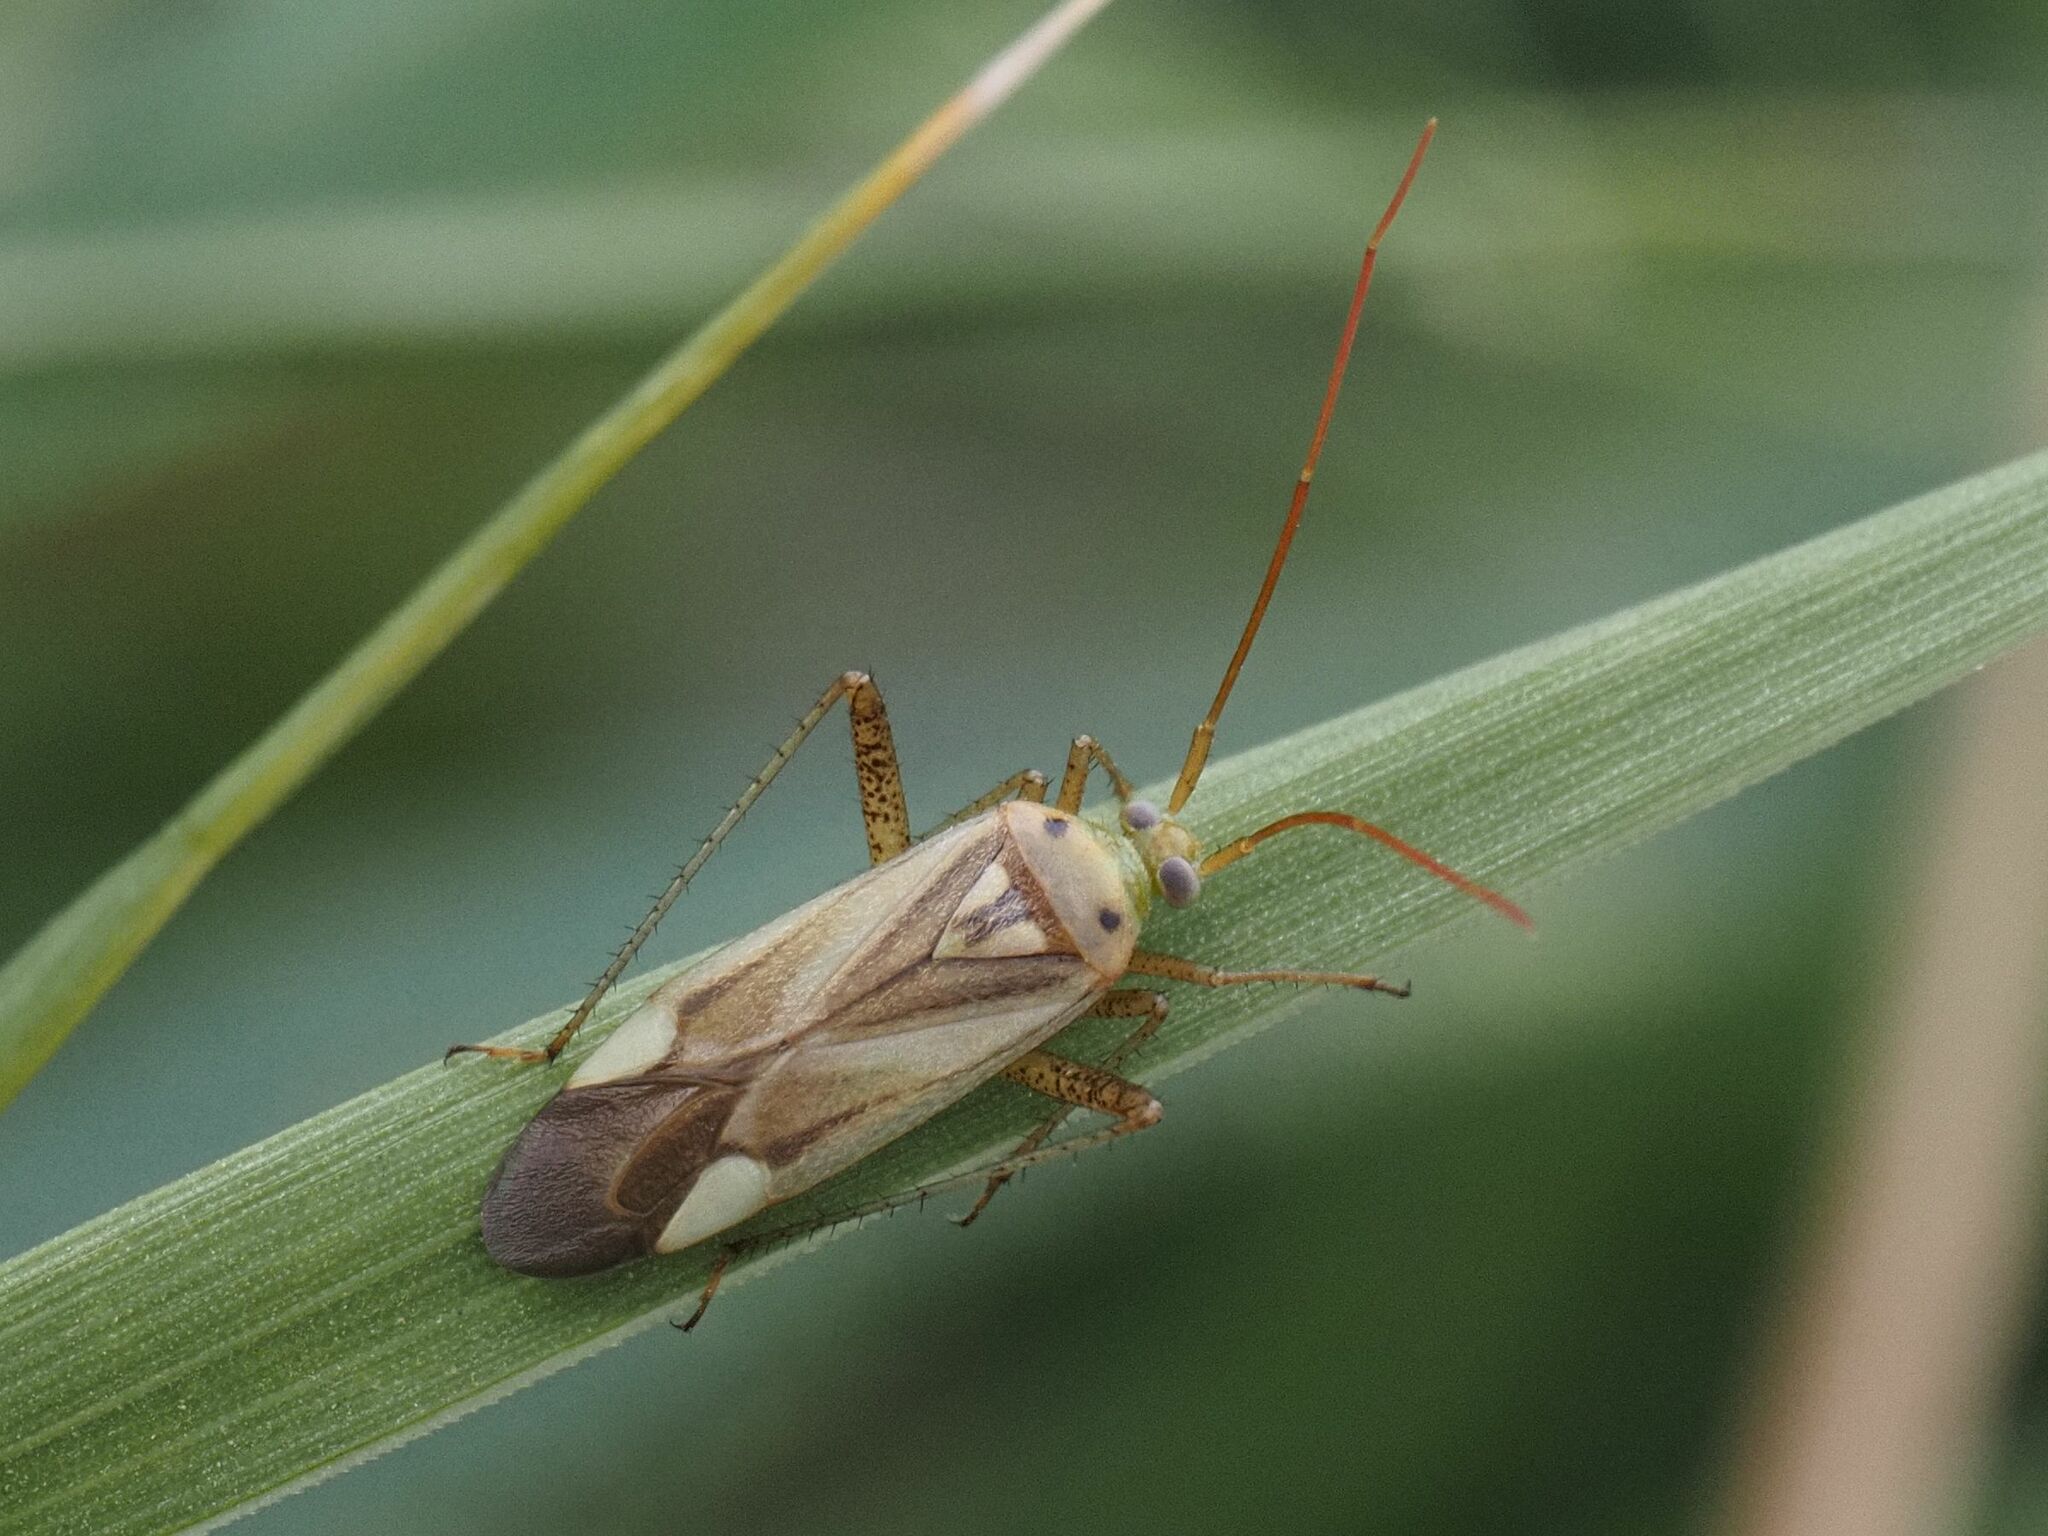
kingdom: Animalia
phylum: Arthropoda
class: Insecta
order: Hemiptera
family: Miridae
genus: Adelphocoris
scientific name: Adelphocoris lineolatus
